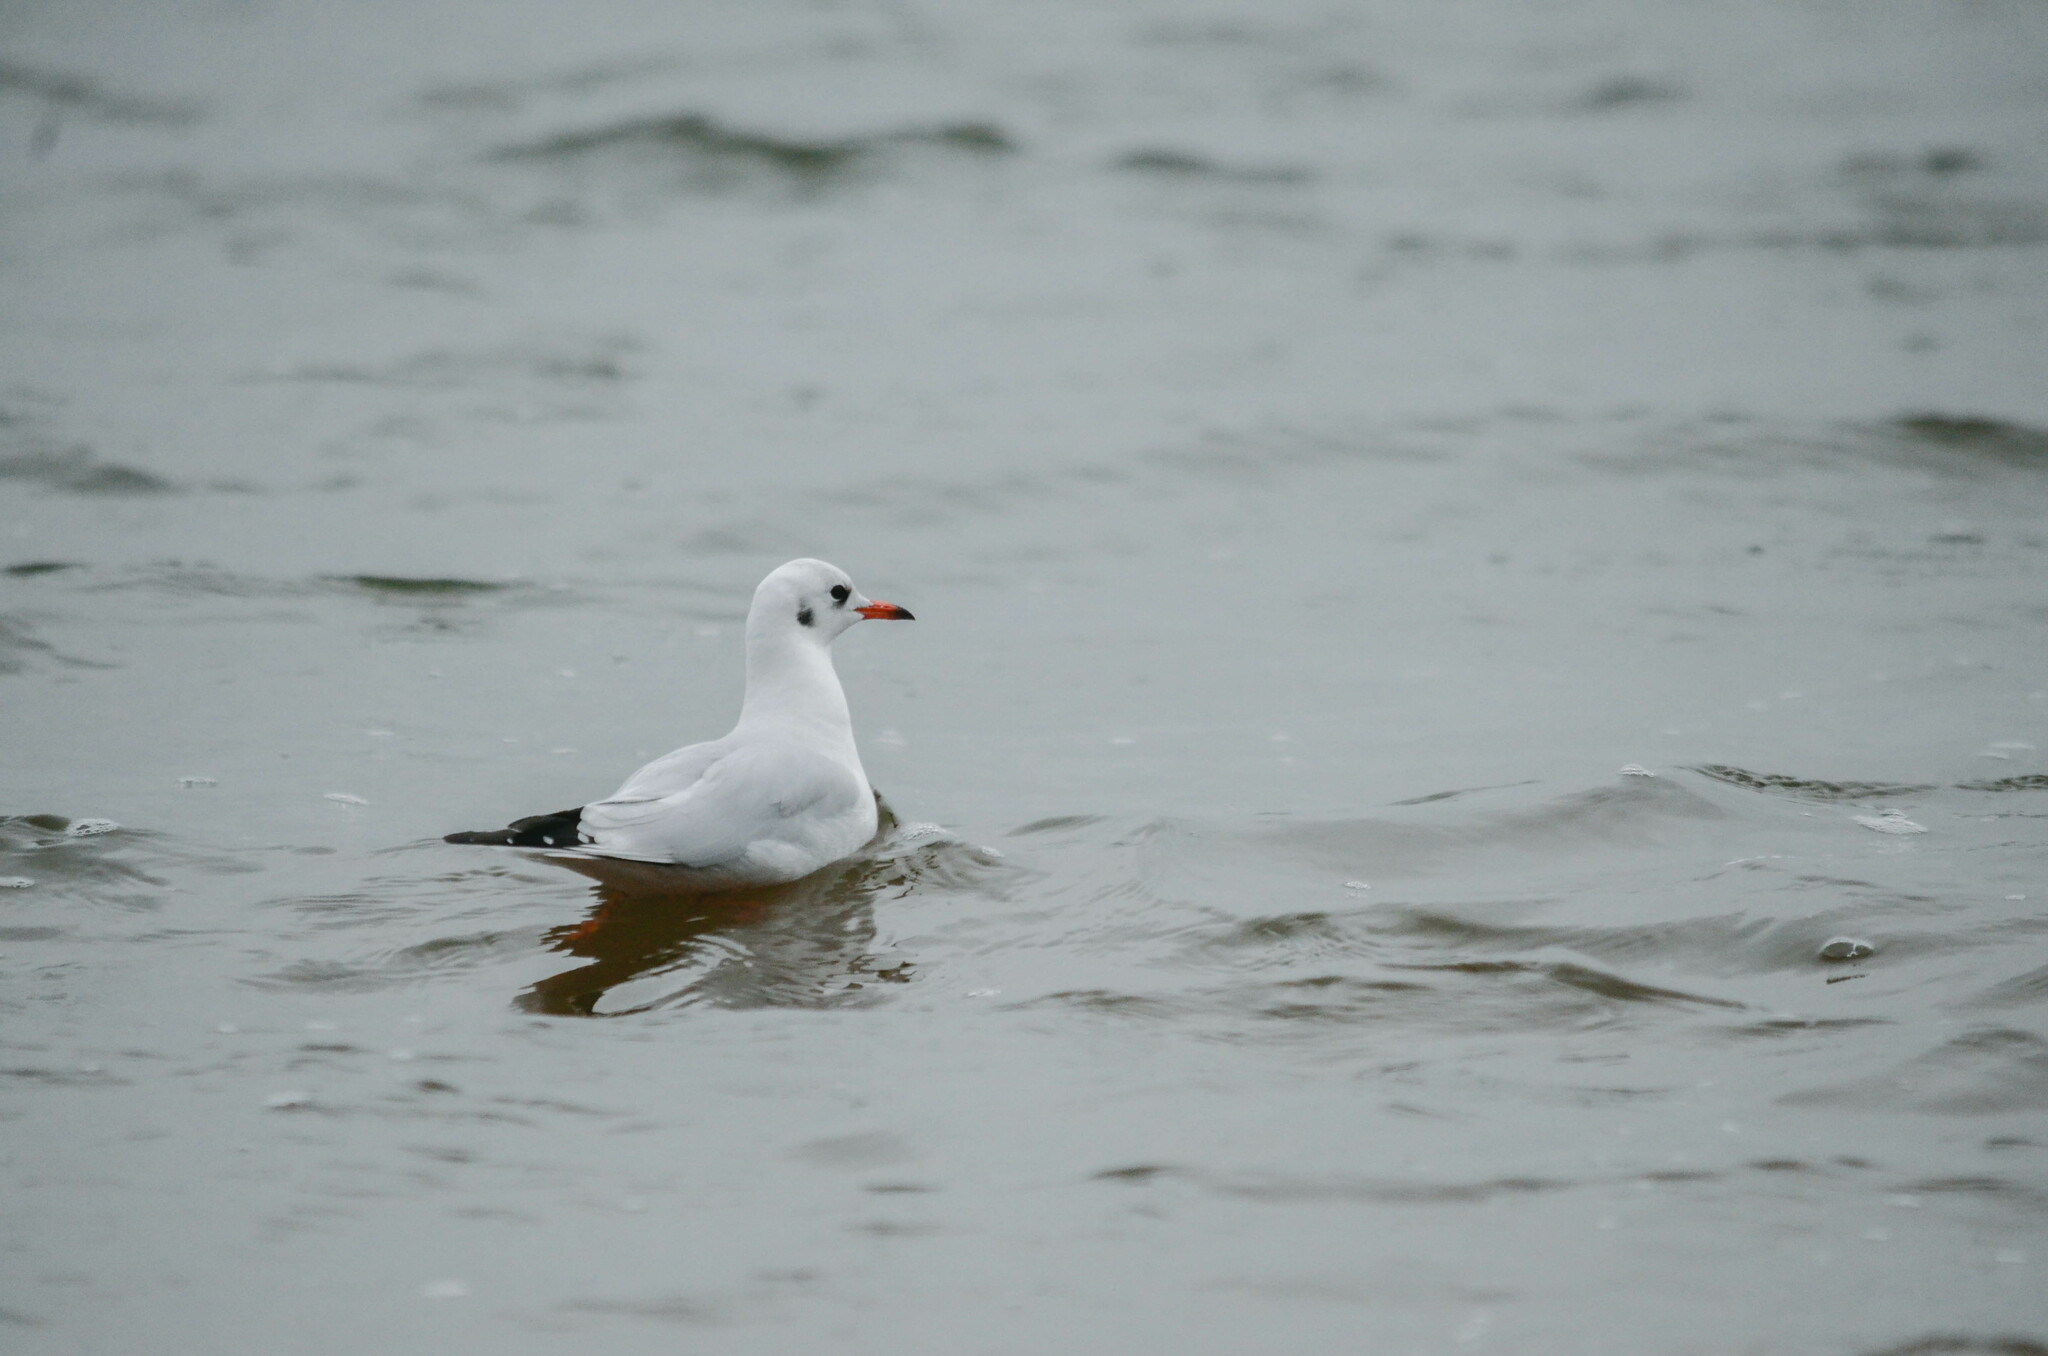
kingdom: Animalia
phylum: Chordata
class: Aves
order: Charadriiformes
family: Laridae
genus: Chroicocephalus
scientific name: Chroicocephalus ridibundus
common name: Black-headed gull
